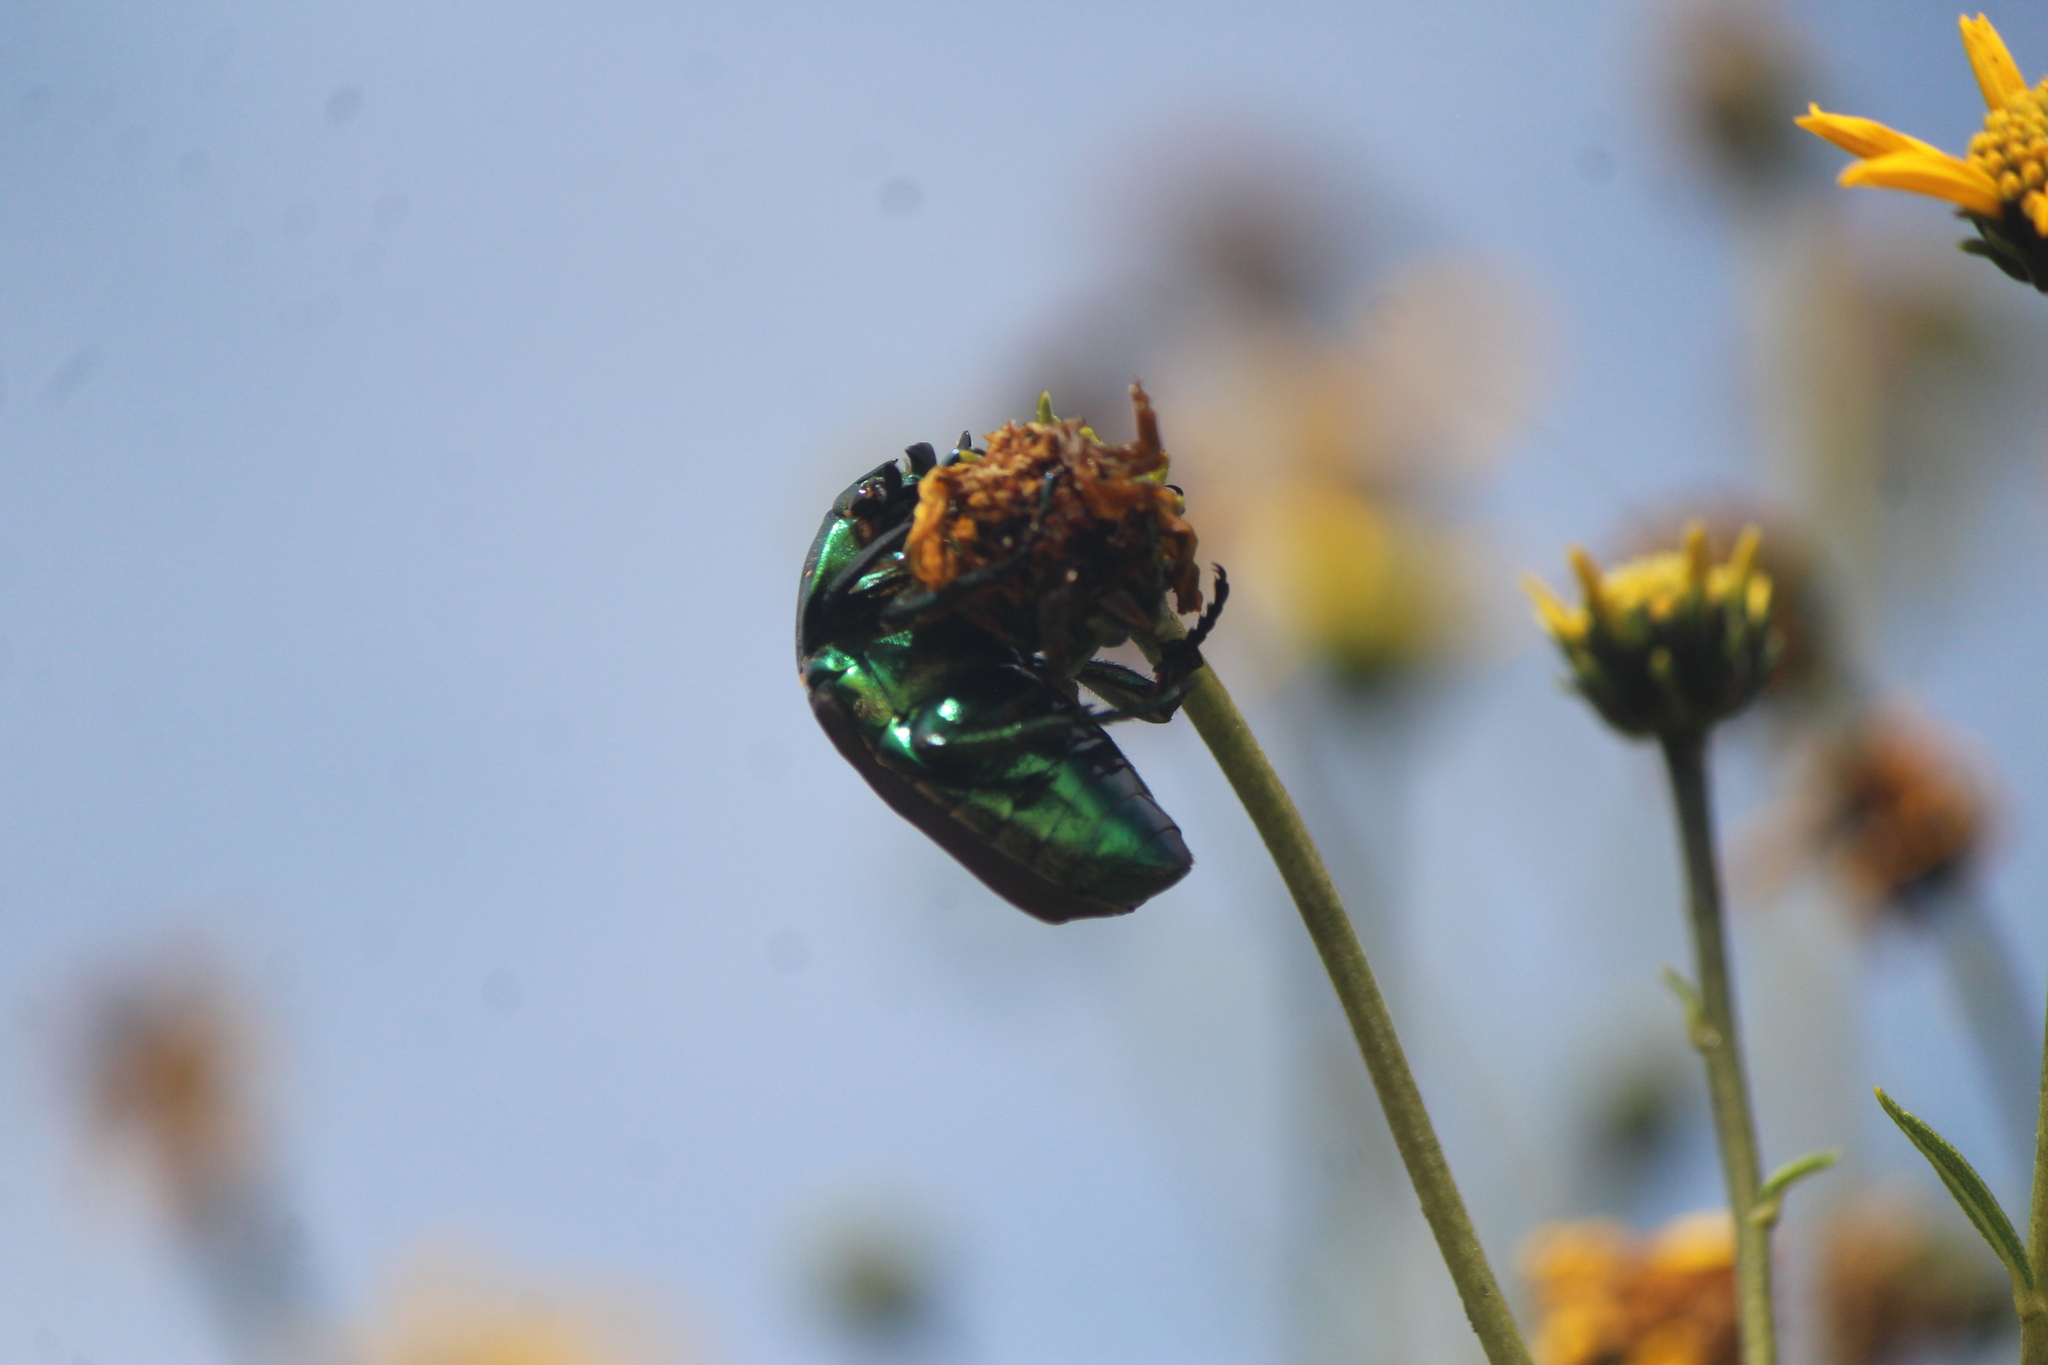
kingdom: Animalia
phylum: Arthropoda
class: Insecta
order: Coleoptera
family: Scarabaeidae
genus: Cotinis
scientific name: Cotinis laticornis
